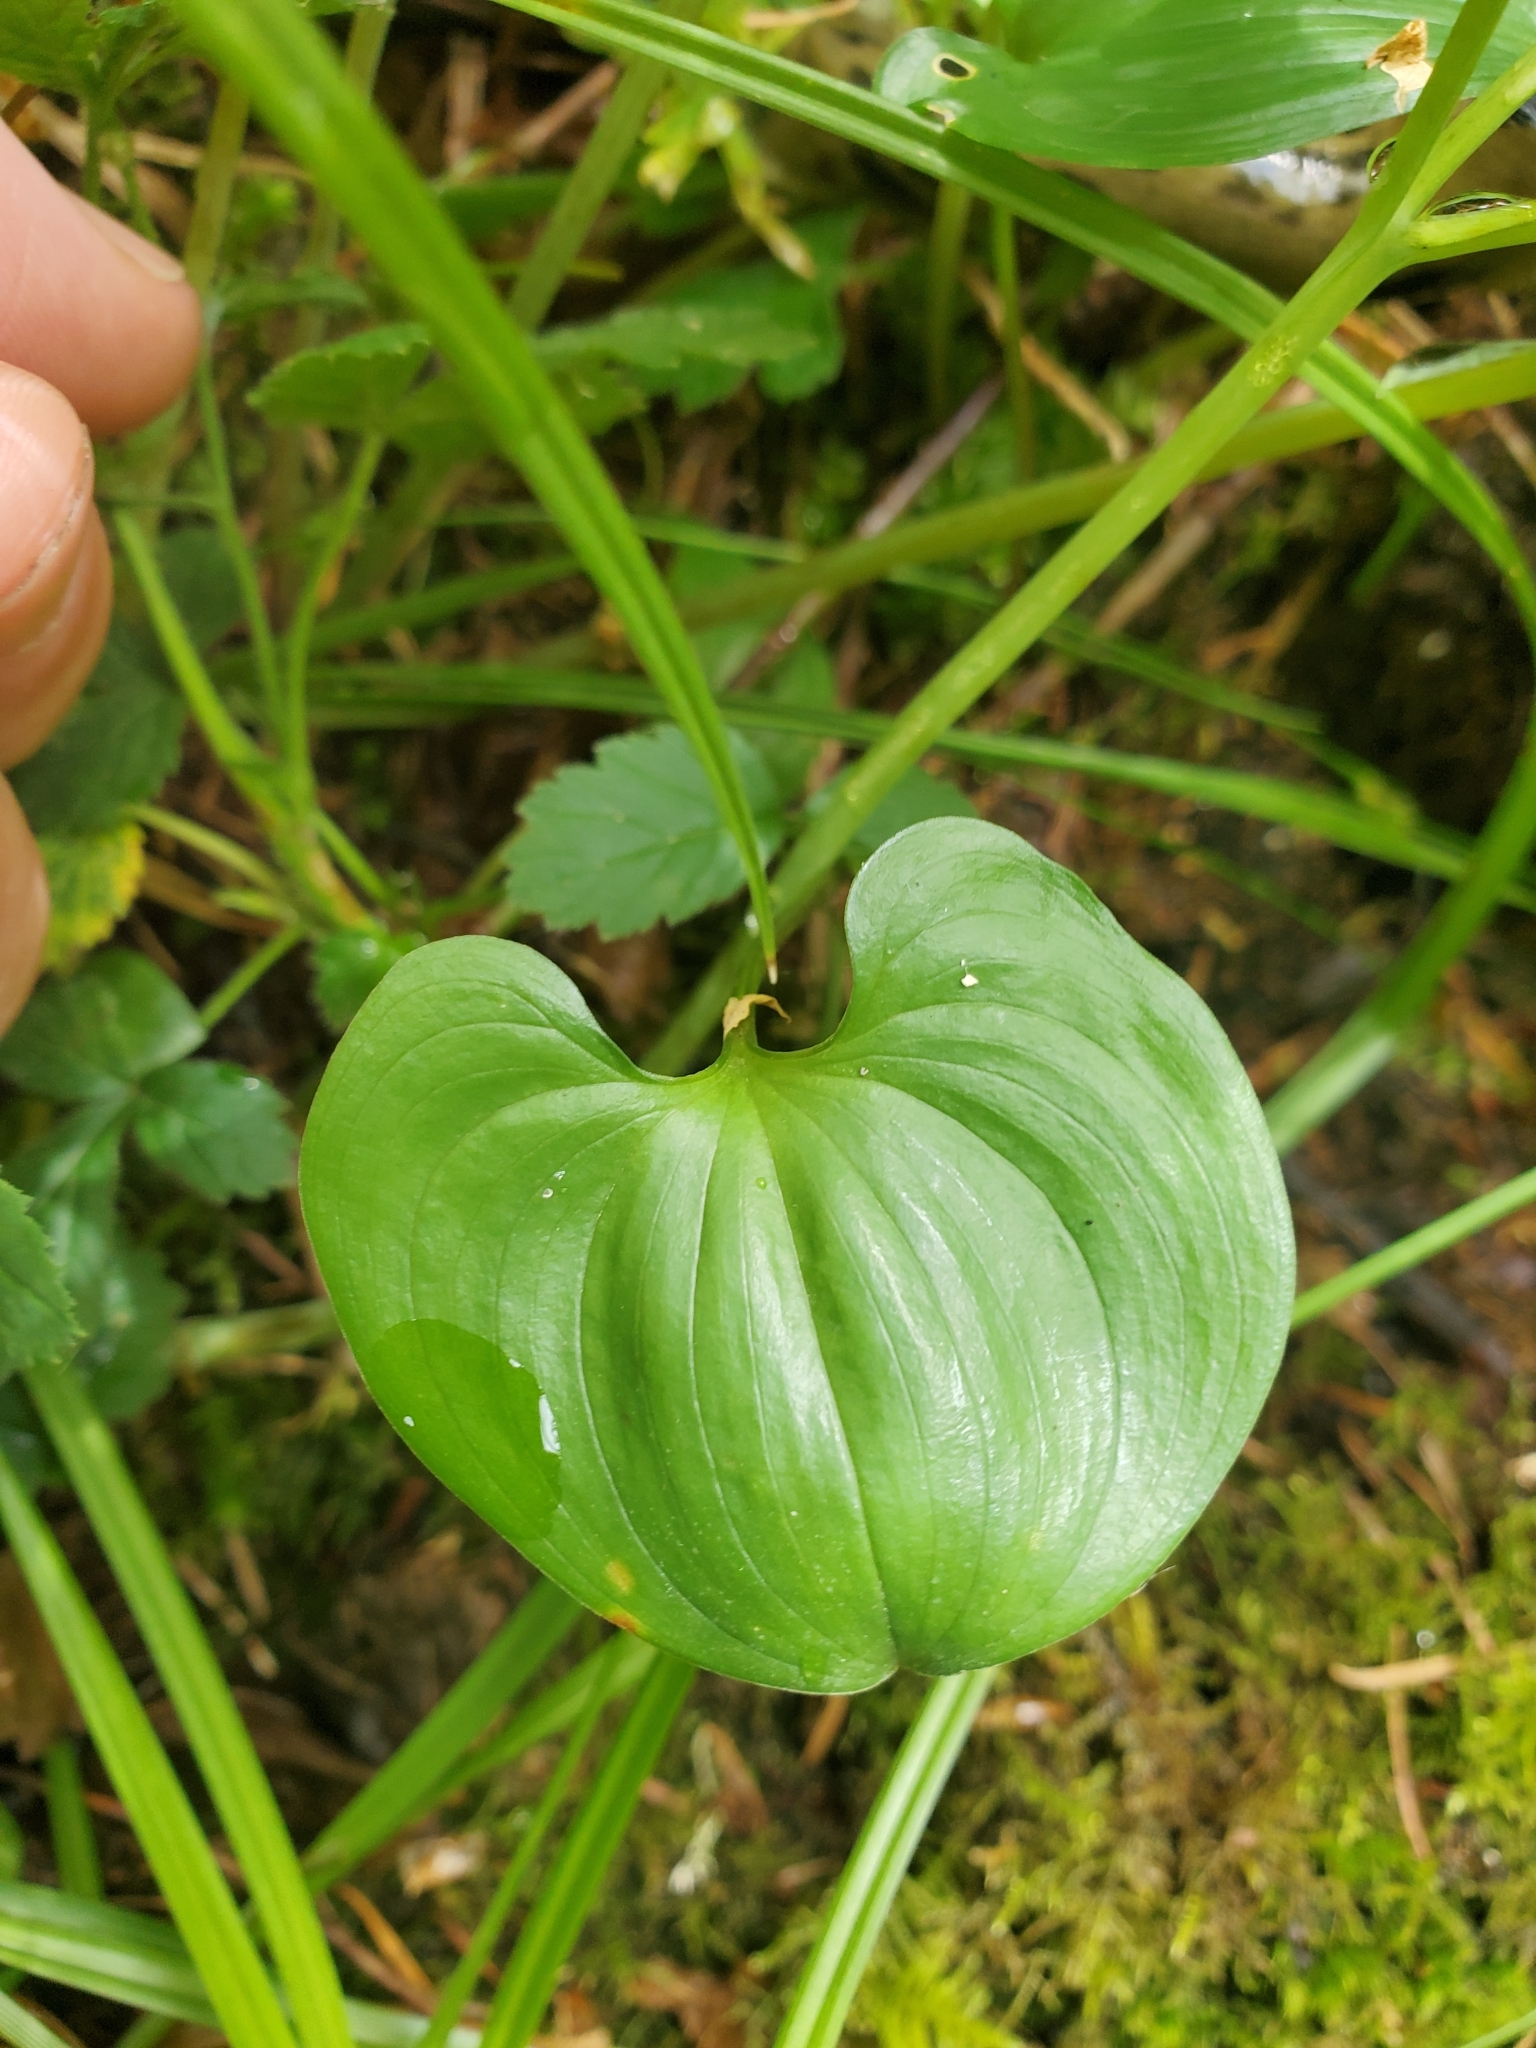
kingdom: Plantae
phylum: Tracheophyta
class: Liliopsida
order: Asparagales
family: Asparagaceae
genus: Maianthemum
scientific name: Maianthemum dilatatum
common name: False lily-of-the-valley
